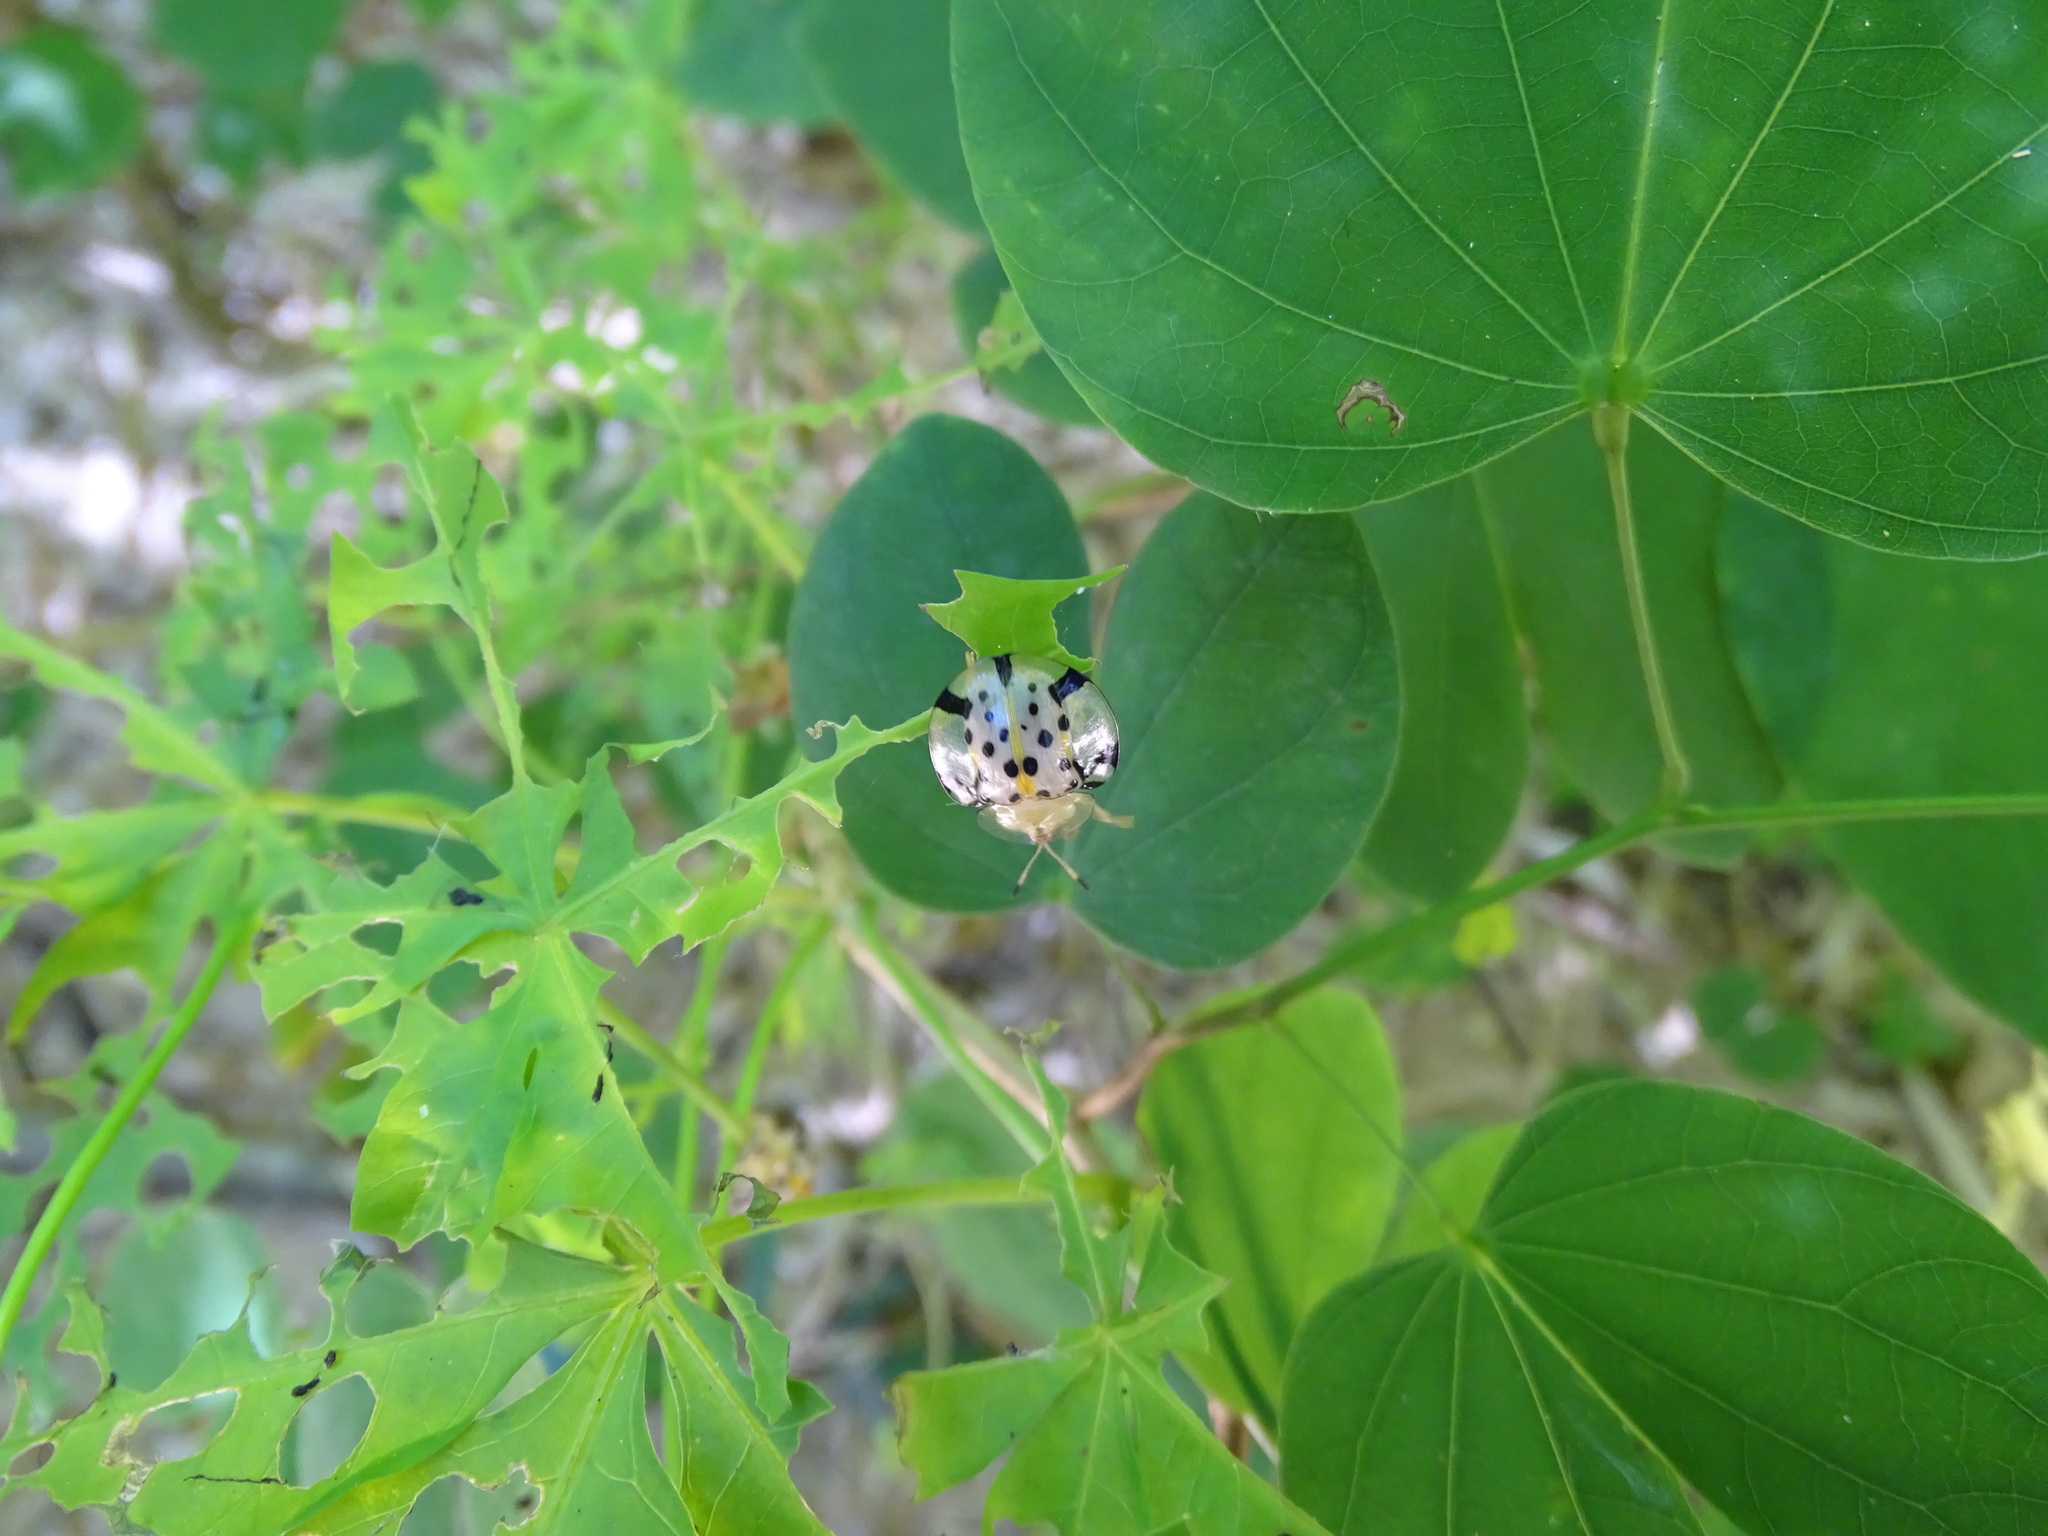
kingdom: Animalia
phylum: Arthropoda
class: Insecta
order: Coleoptera
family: Chrysomelidae
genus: Aspidimorpha
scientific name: Aspidimorpha miliaris
